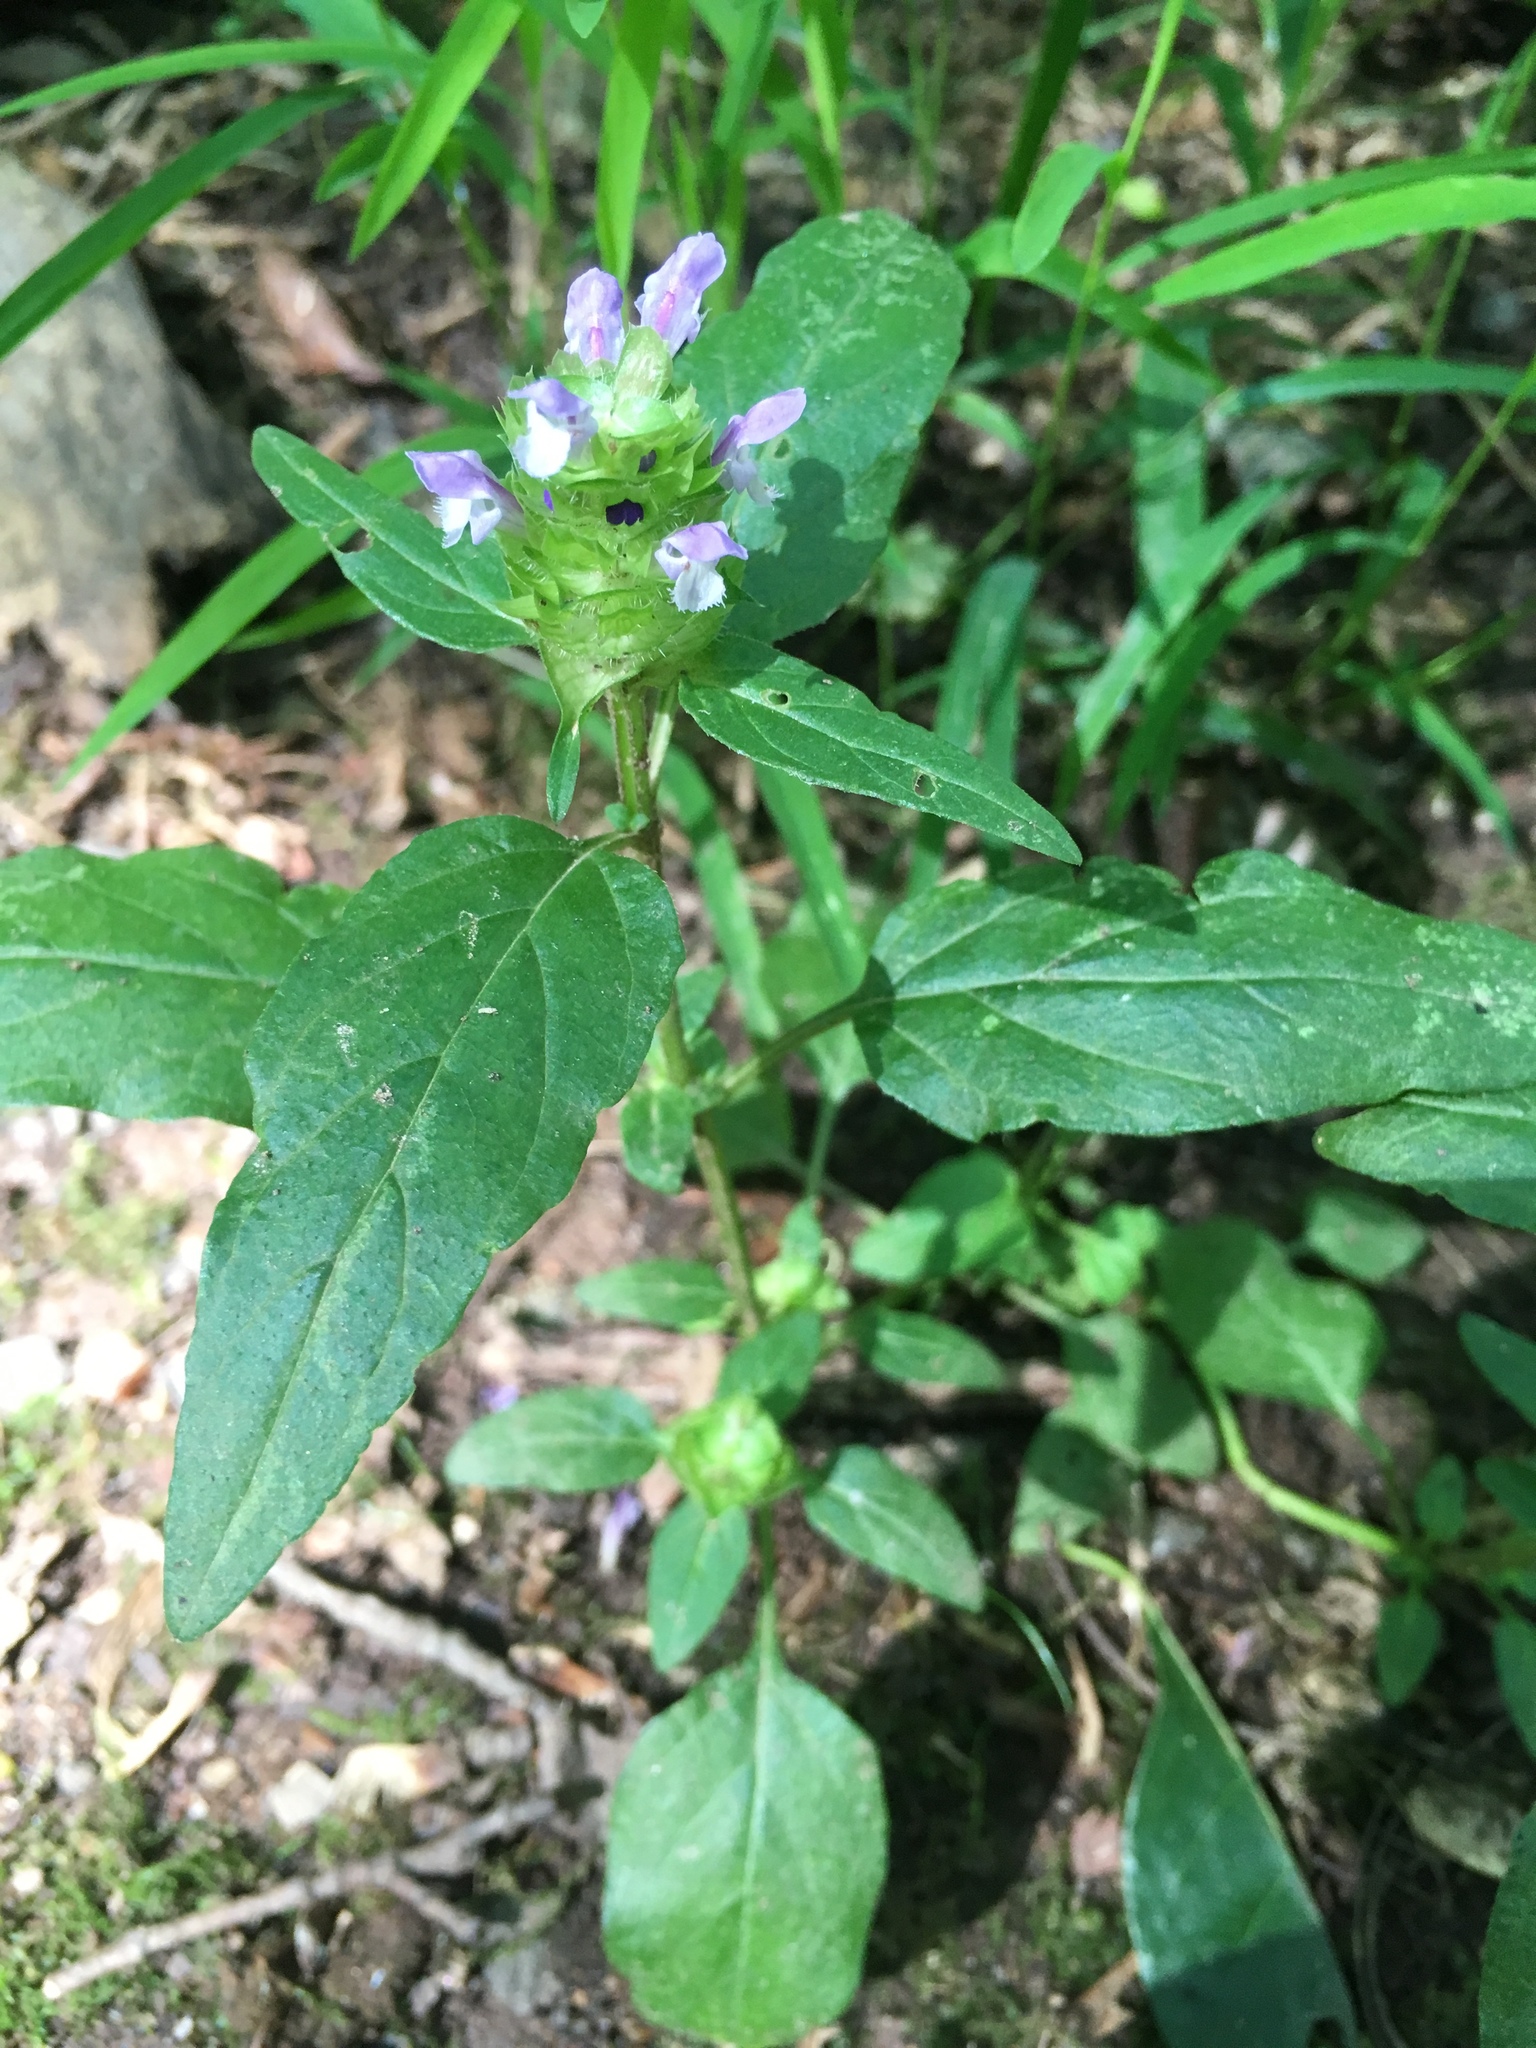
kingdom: Plantae
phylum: Tracheophyta
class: Magnoliopsida
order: Lamiales
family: Lamiaceae
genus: Prunella
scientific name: Prunella vulgaris
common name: Heal-all
